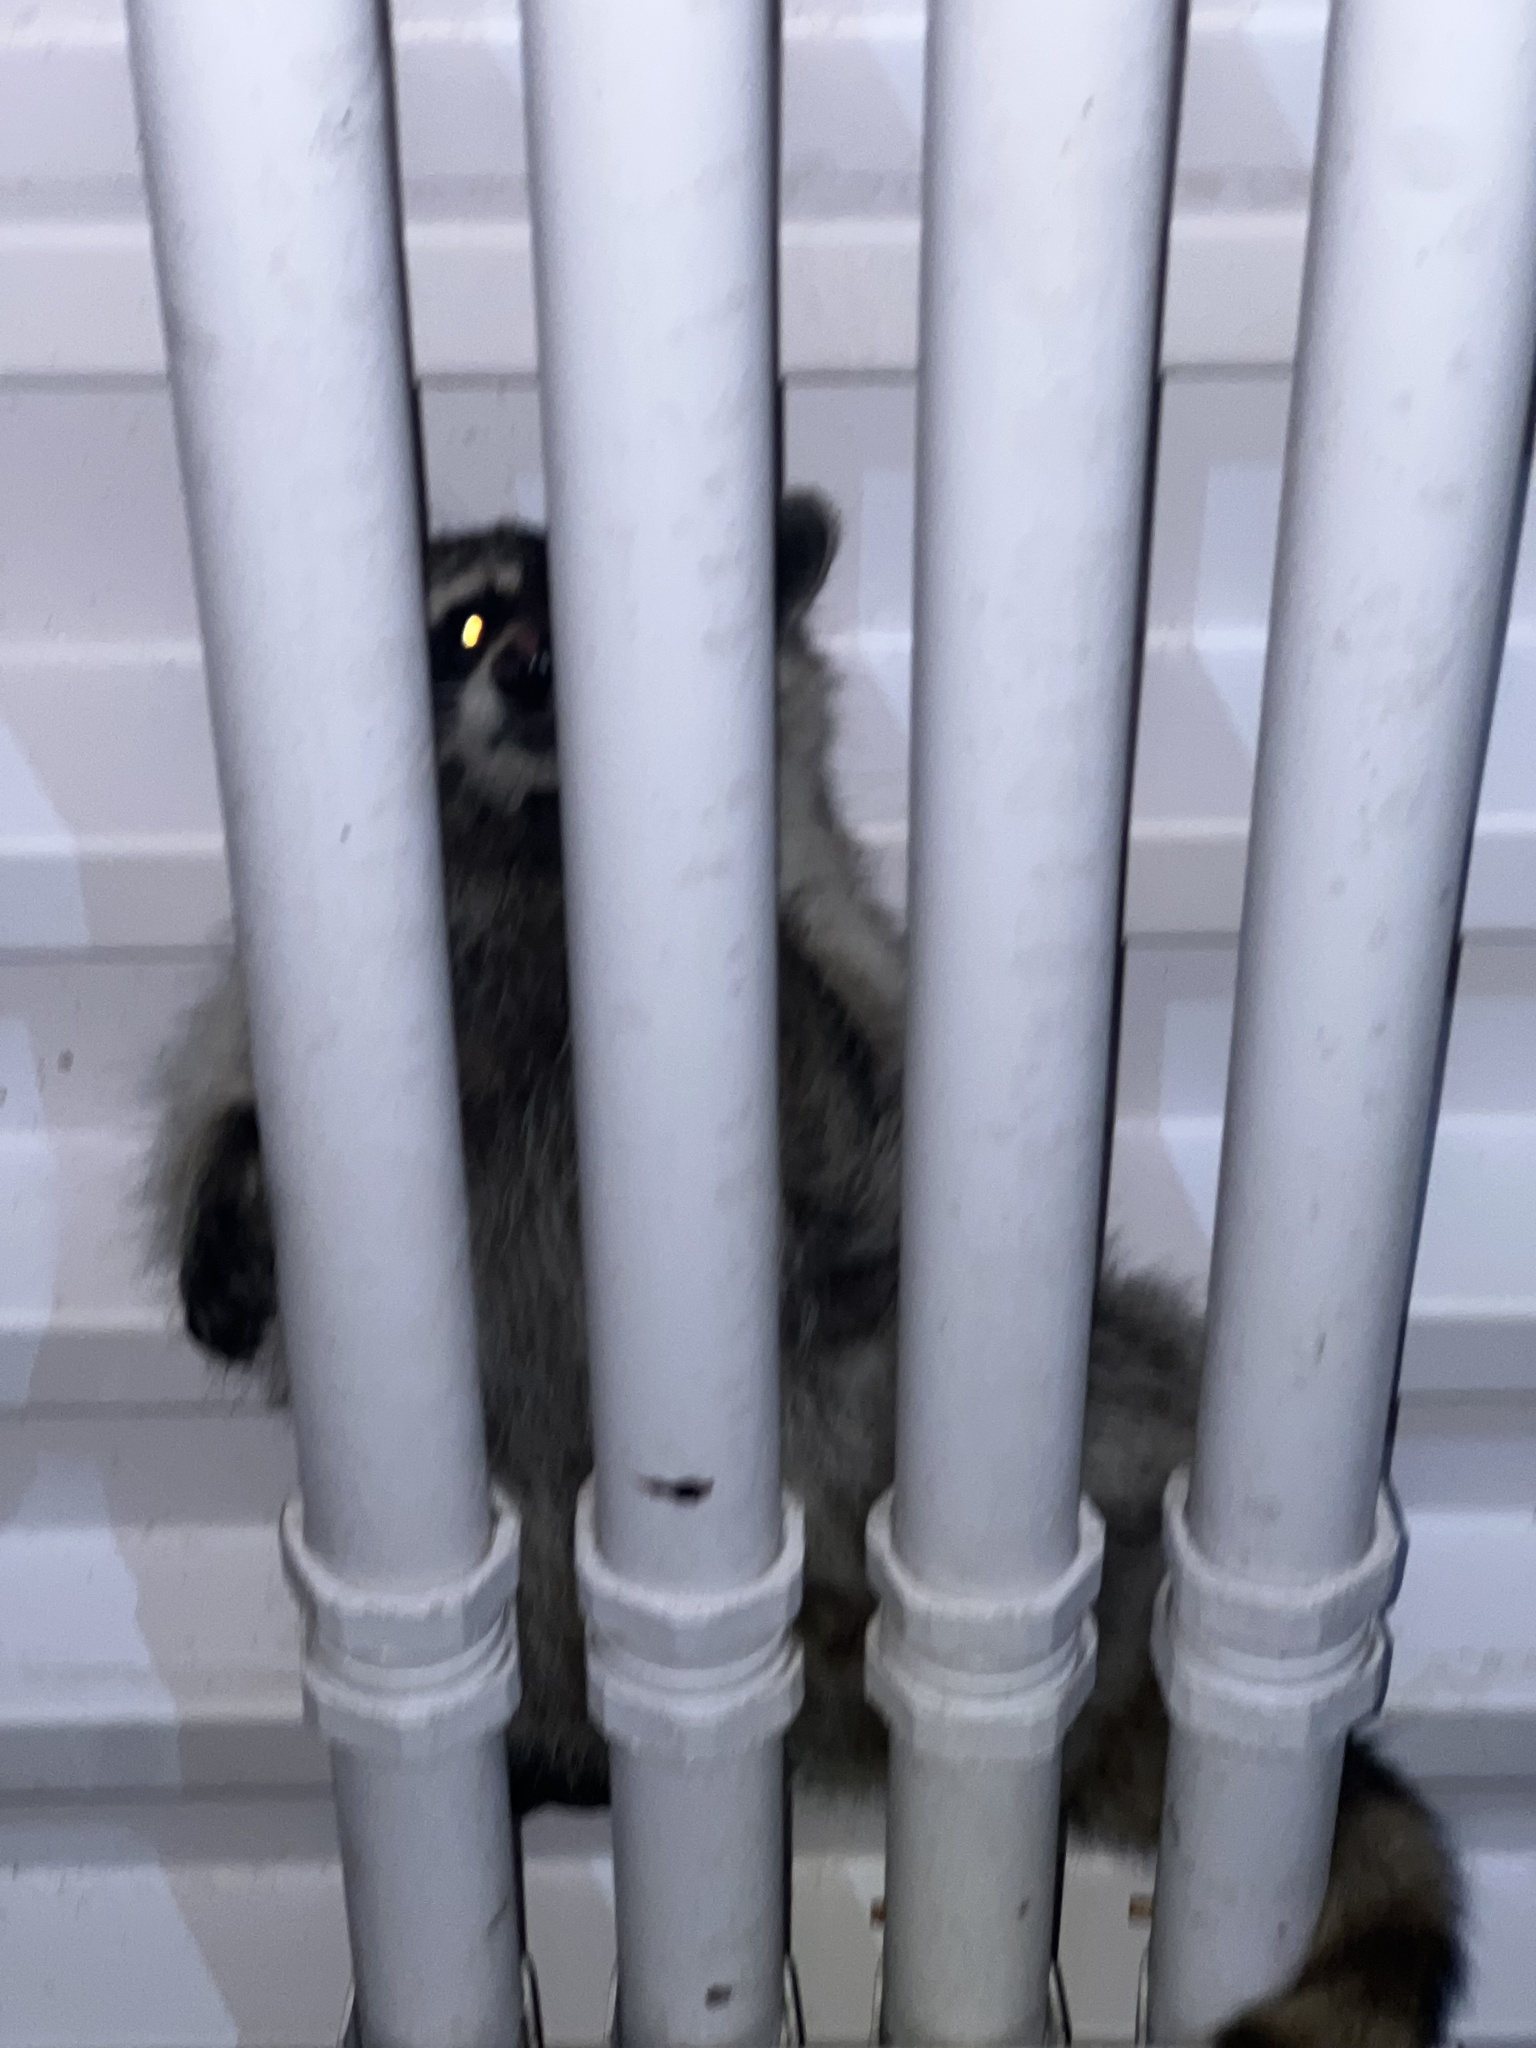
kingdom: Animalia
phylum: Chordata
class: Mammalia
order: Carnivora
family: Procyonidae
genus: Procyon
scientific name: Procyon lotor
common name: Raccoon
